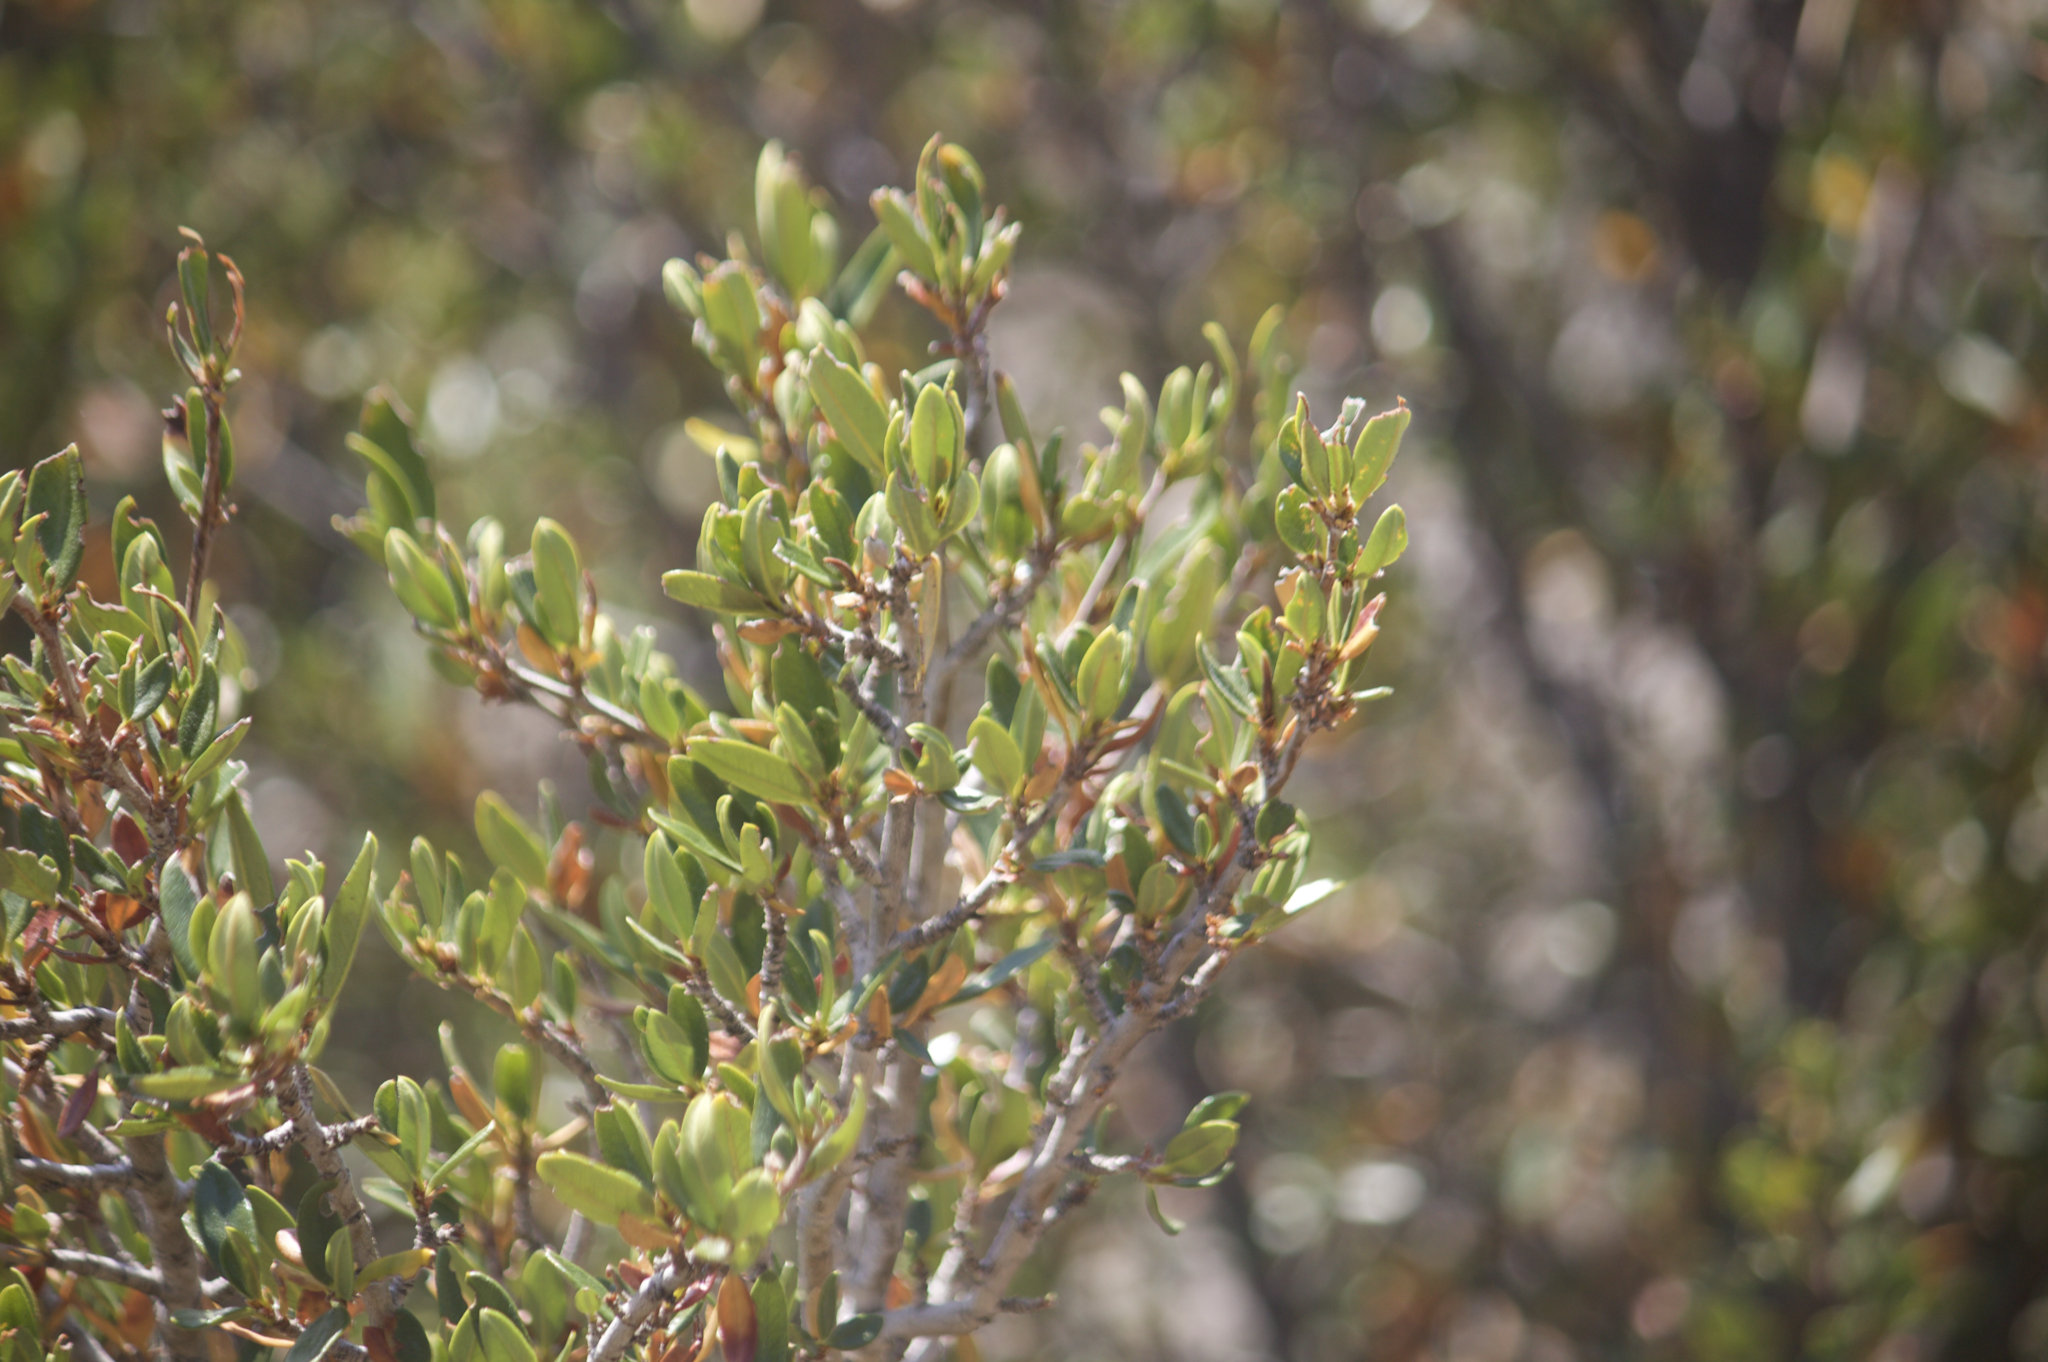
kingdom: Plantae
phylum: Tracheophyta
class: Magnoliopsida
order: Rosales
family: Rosaceae
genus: Cercocarpus
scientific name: Cercocarpus ledifolius
